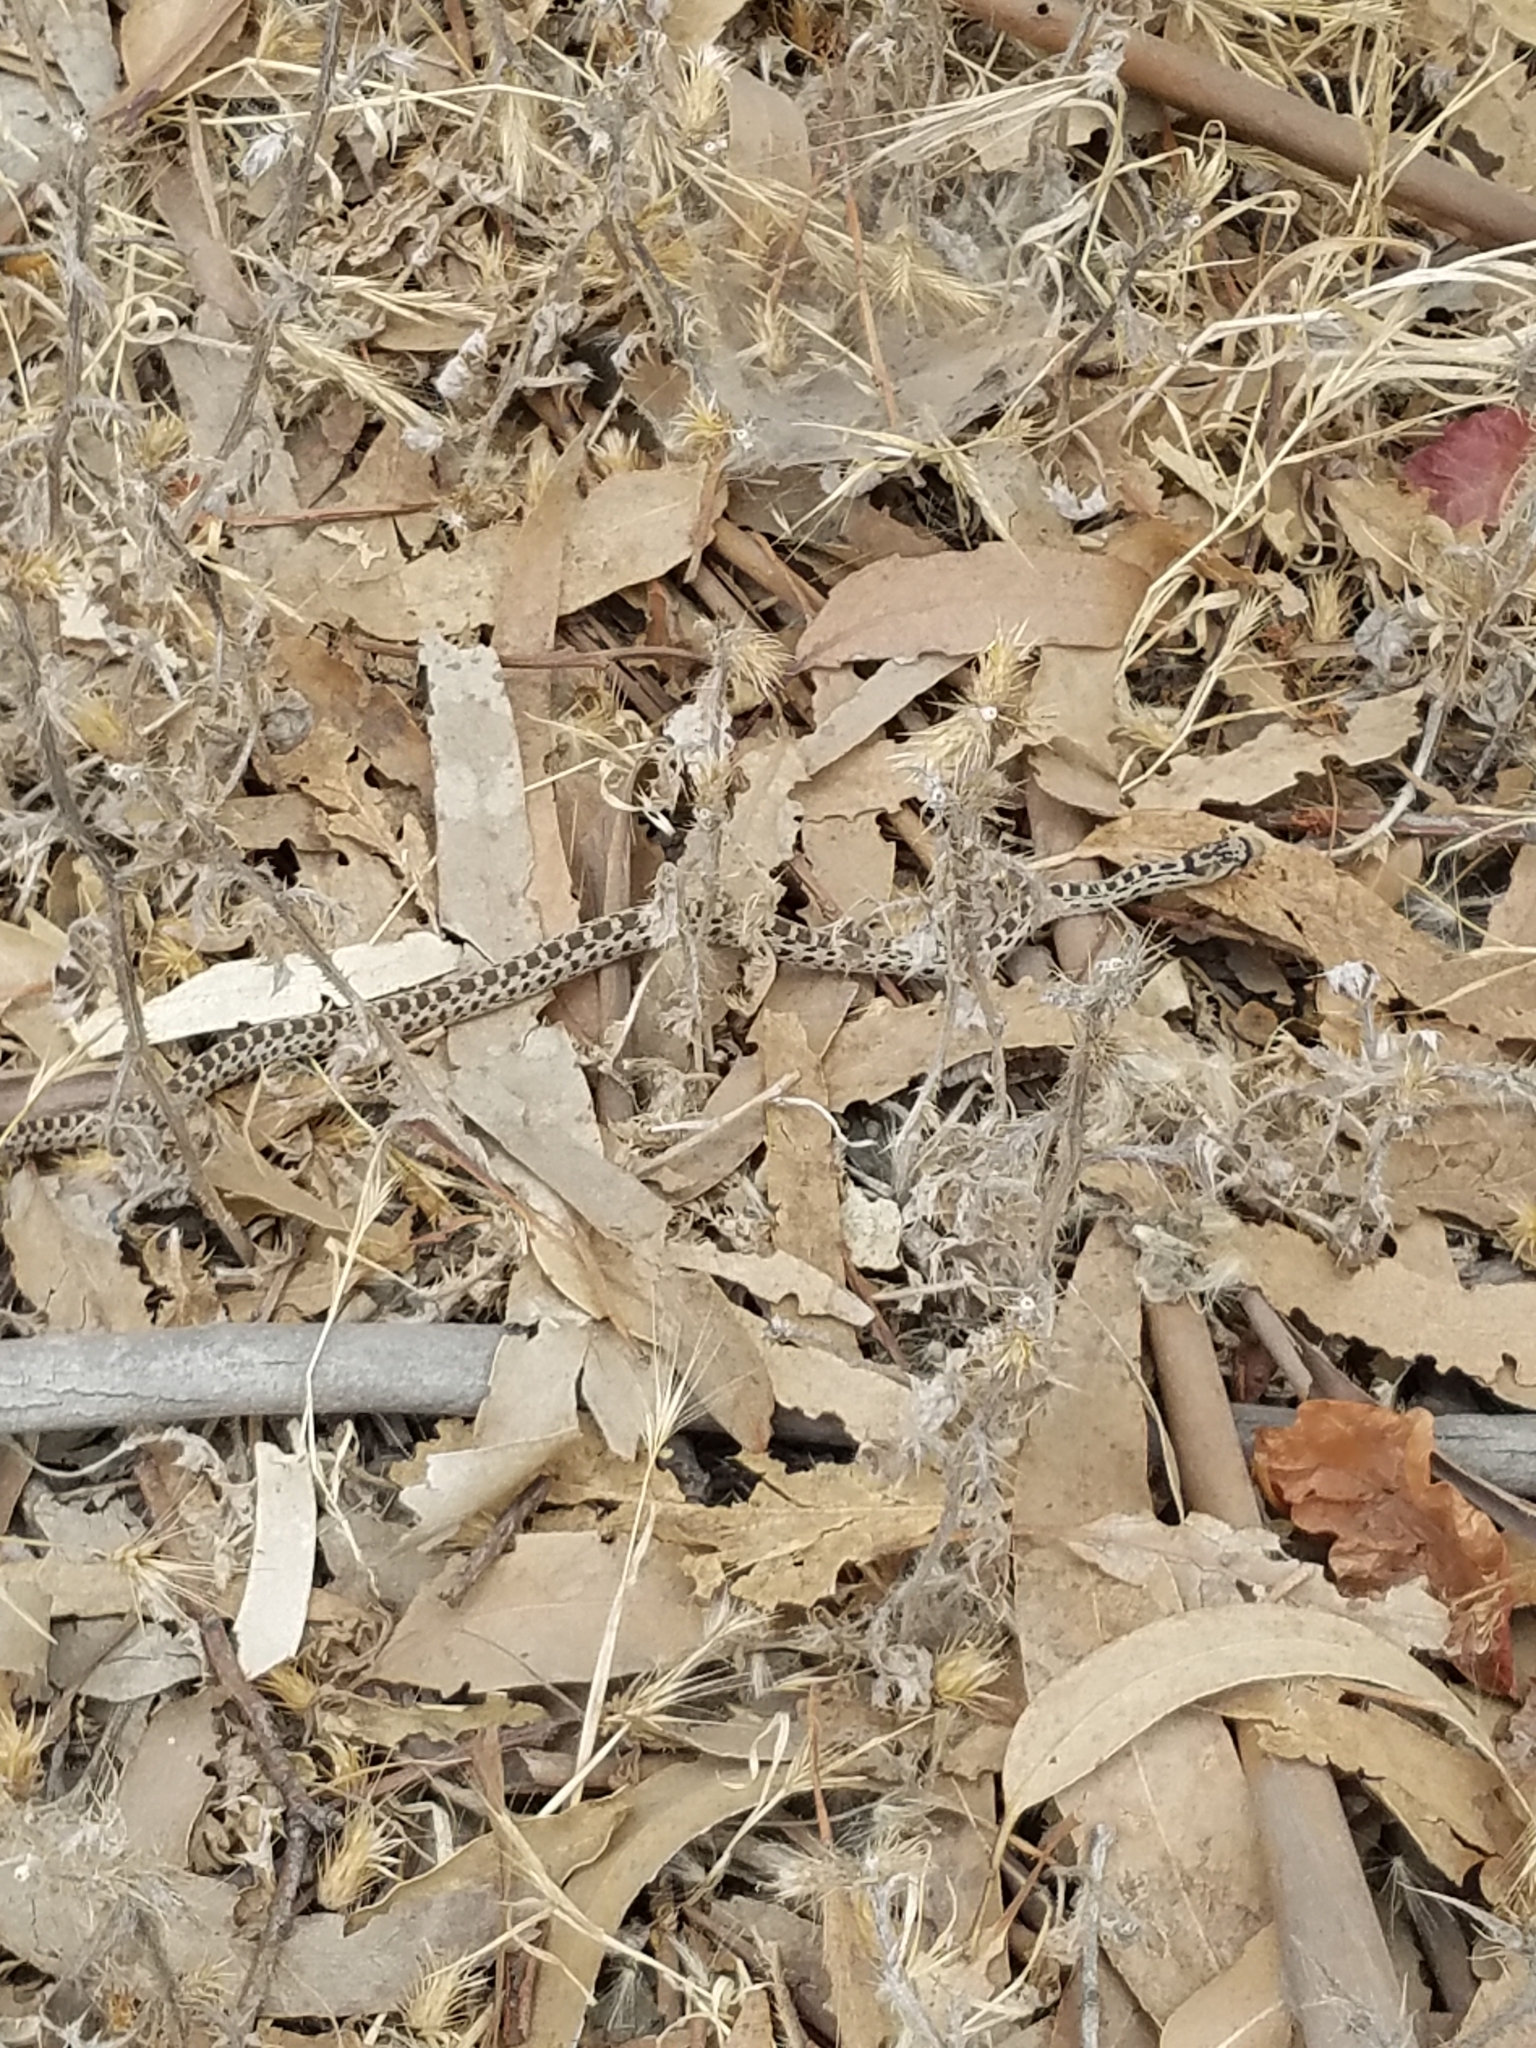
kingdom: Animalia
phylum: Chordata
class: Squamata
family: Colubridae
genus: Pituophis
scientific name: Pituophis catenifer
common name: Gopher snake
